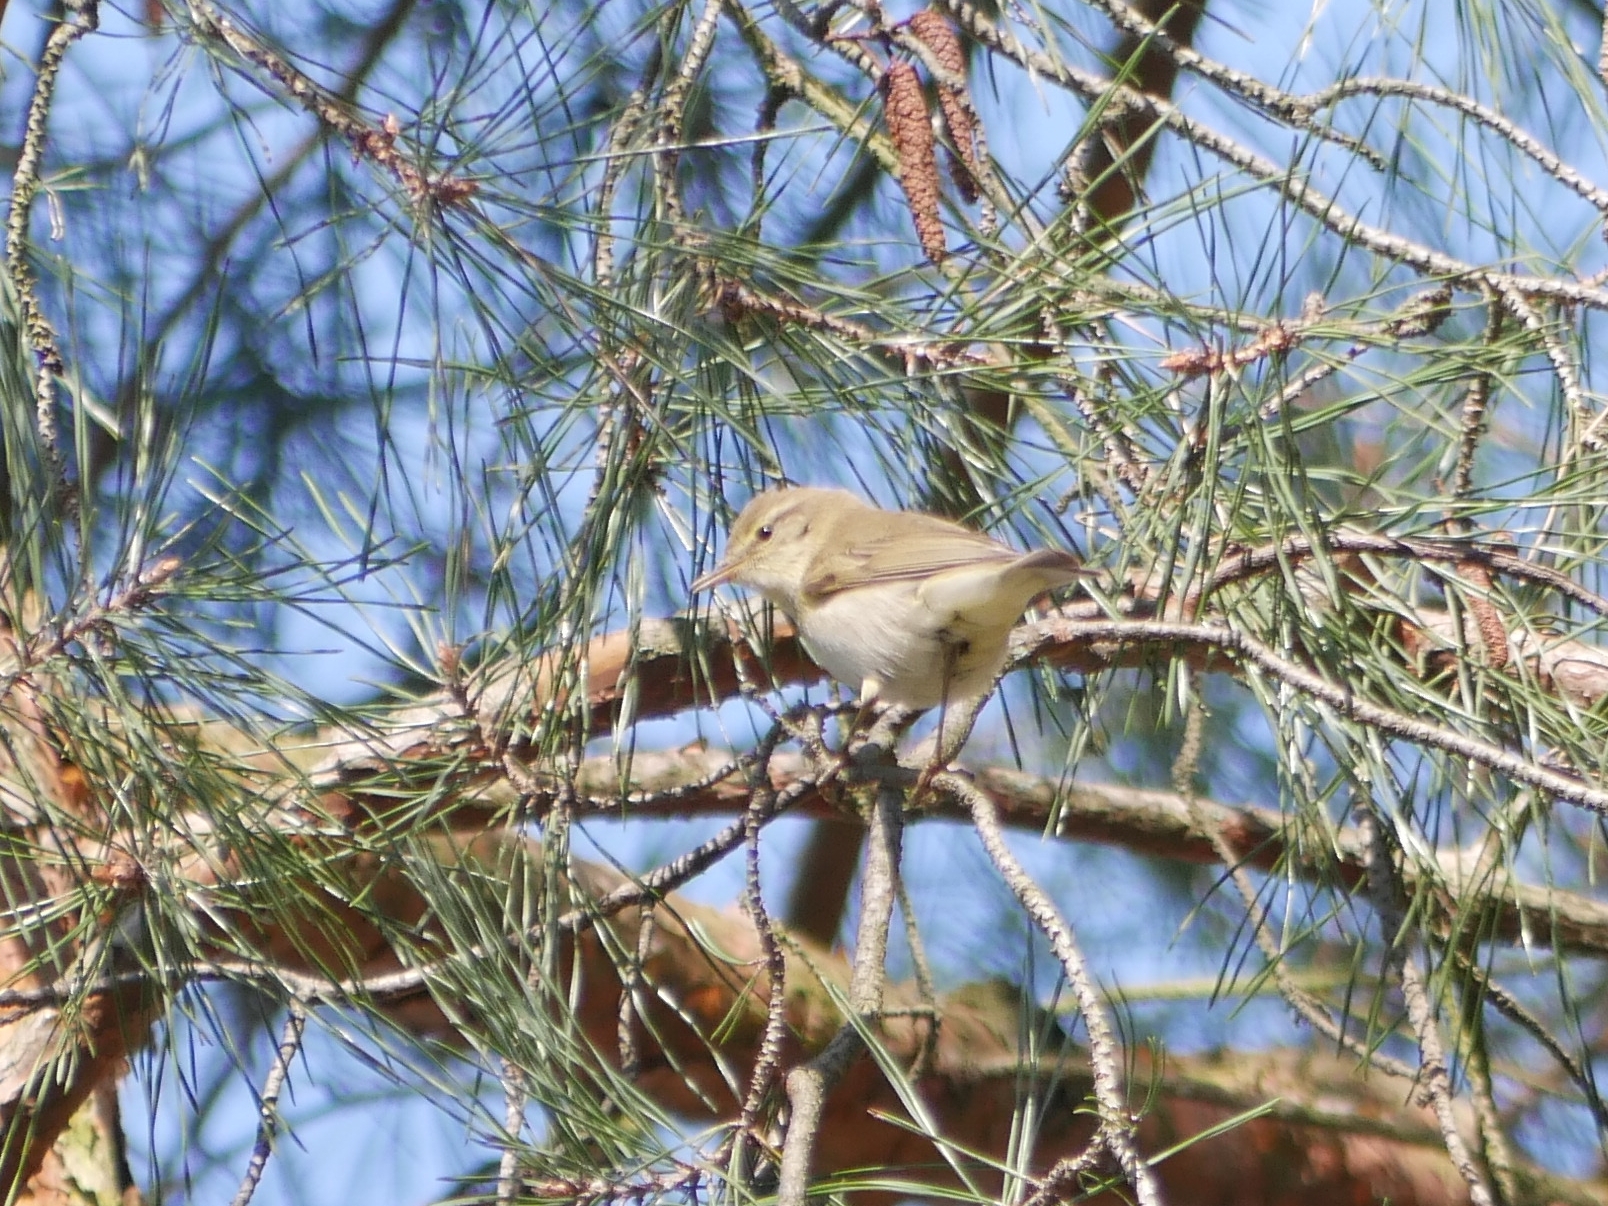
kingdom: Animalia
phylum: Chordata
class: Aves
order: Passeriformes
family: Phylloscopidae
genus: Phylloscopus
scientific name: Phylloscopus trochilus
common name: Willow warbler
